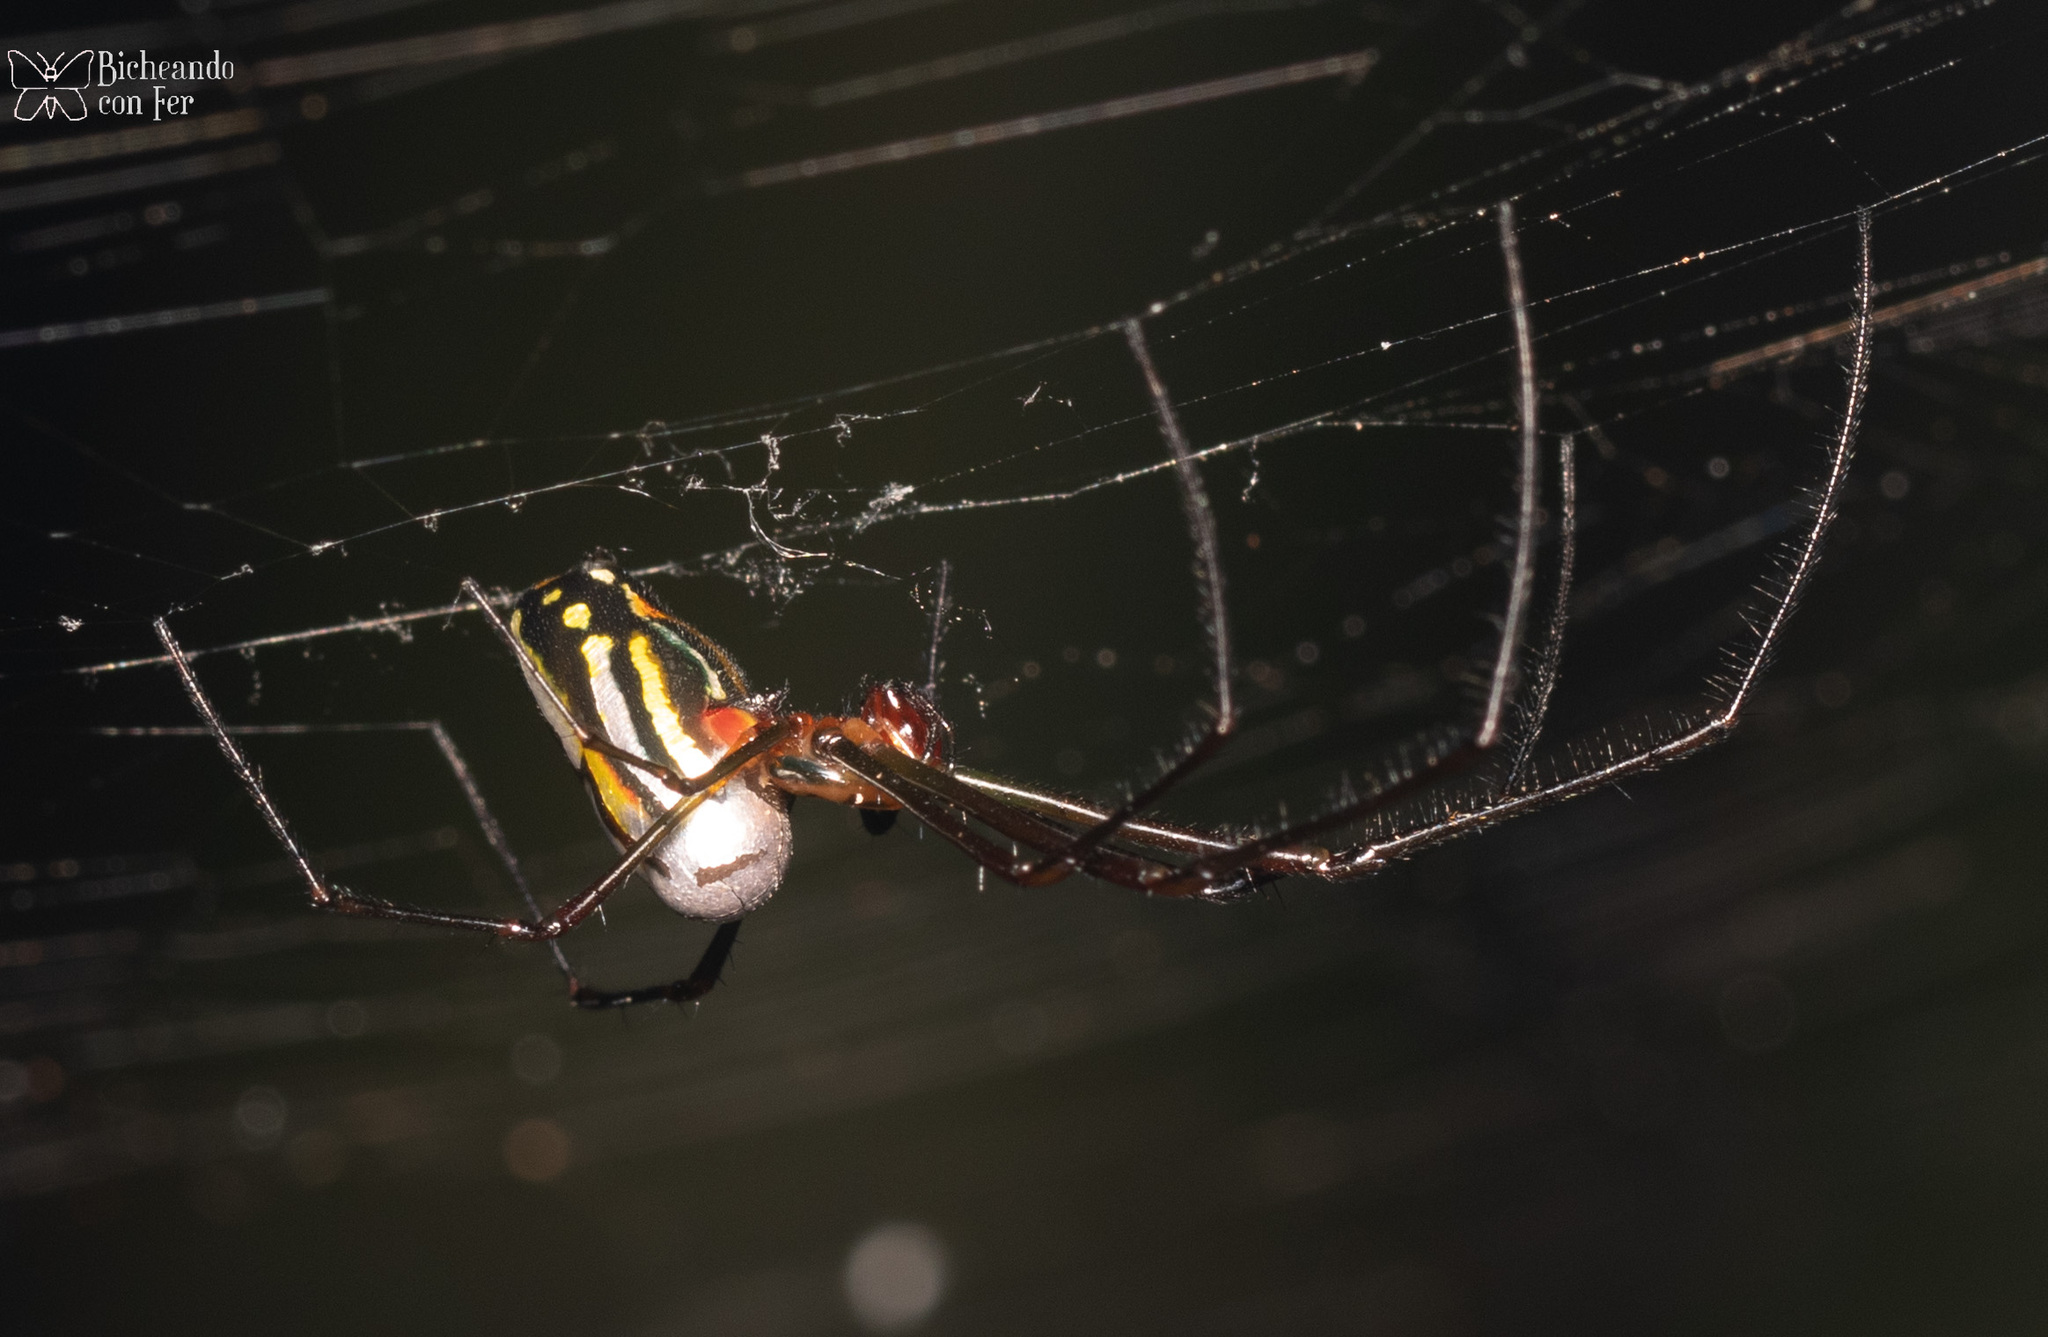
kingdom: Animalia
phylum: Arthropoda
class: Arachnida
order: Araneae
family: Tetragnathidae
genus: Leucauge
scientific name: Leucauge argyra
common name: Longjawed orb weavers
